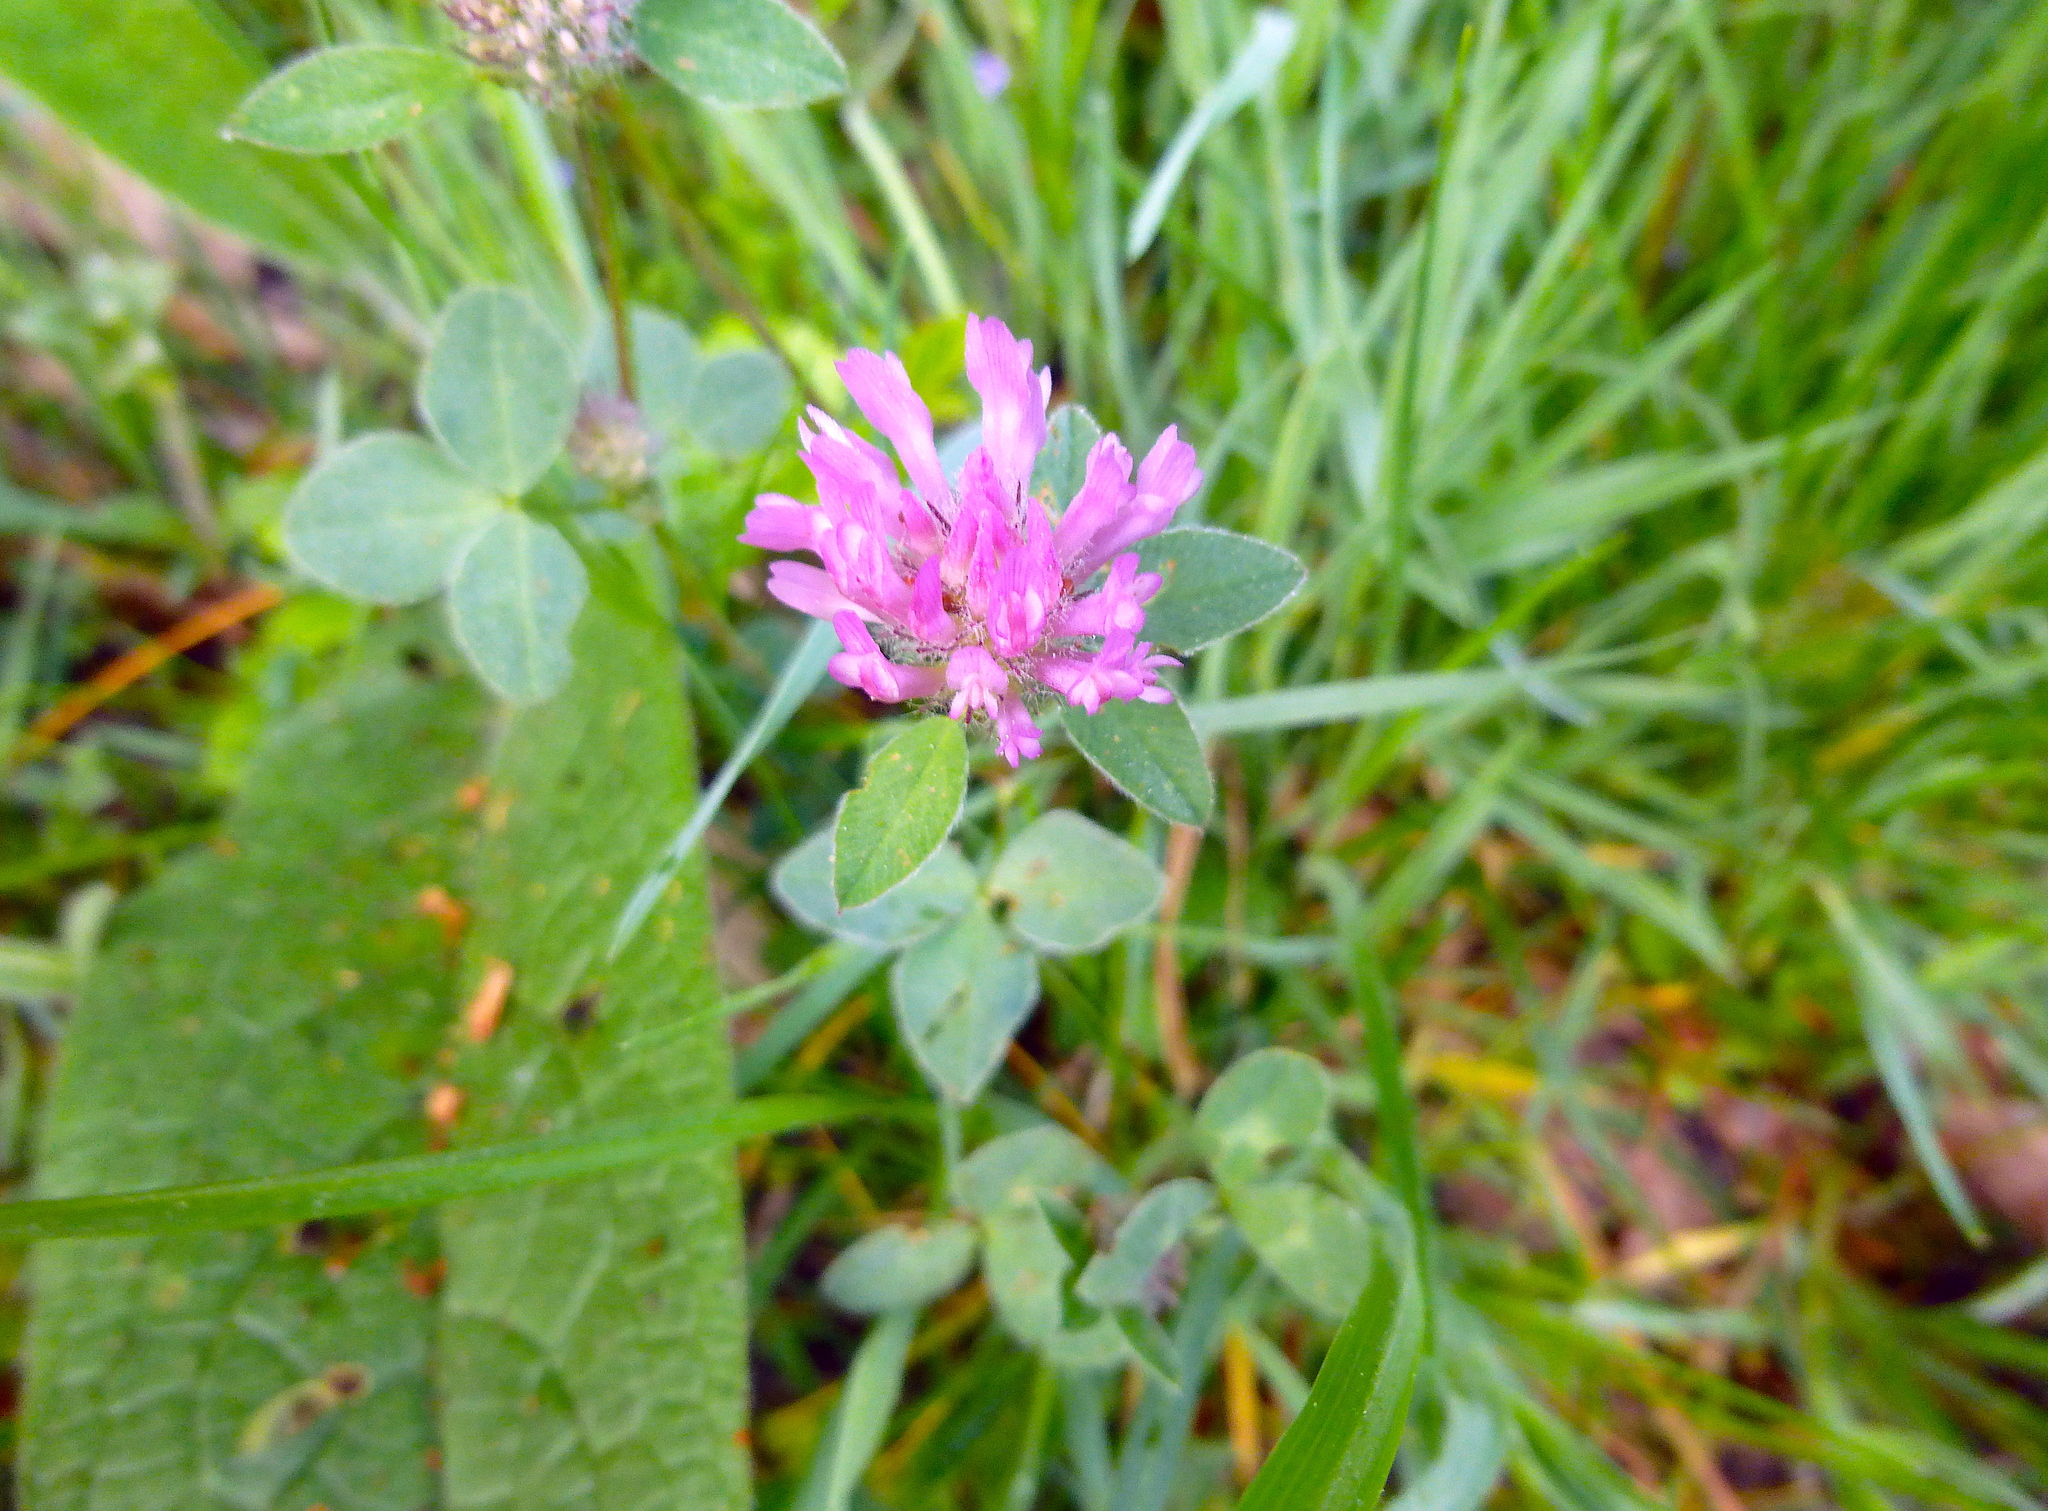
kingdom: Plantae
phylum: Tracheophyta
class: Magnoliopsida
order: Fabales
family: Fabaceae
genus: Trifolium
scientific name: Trifolium pratense
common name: Red clover
